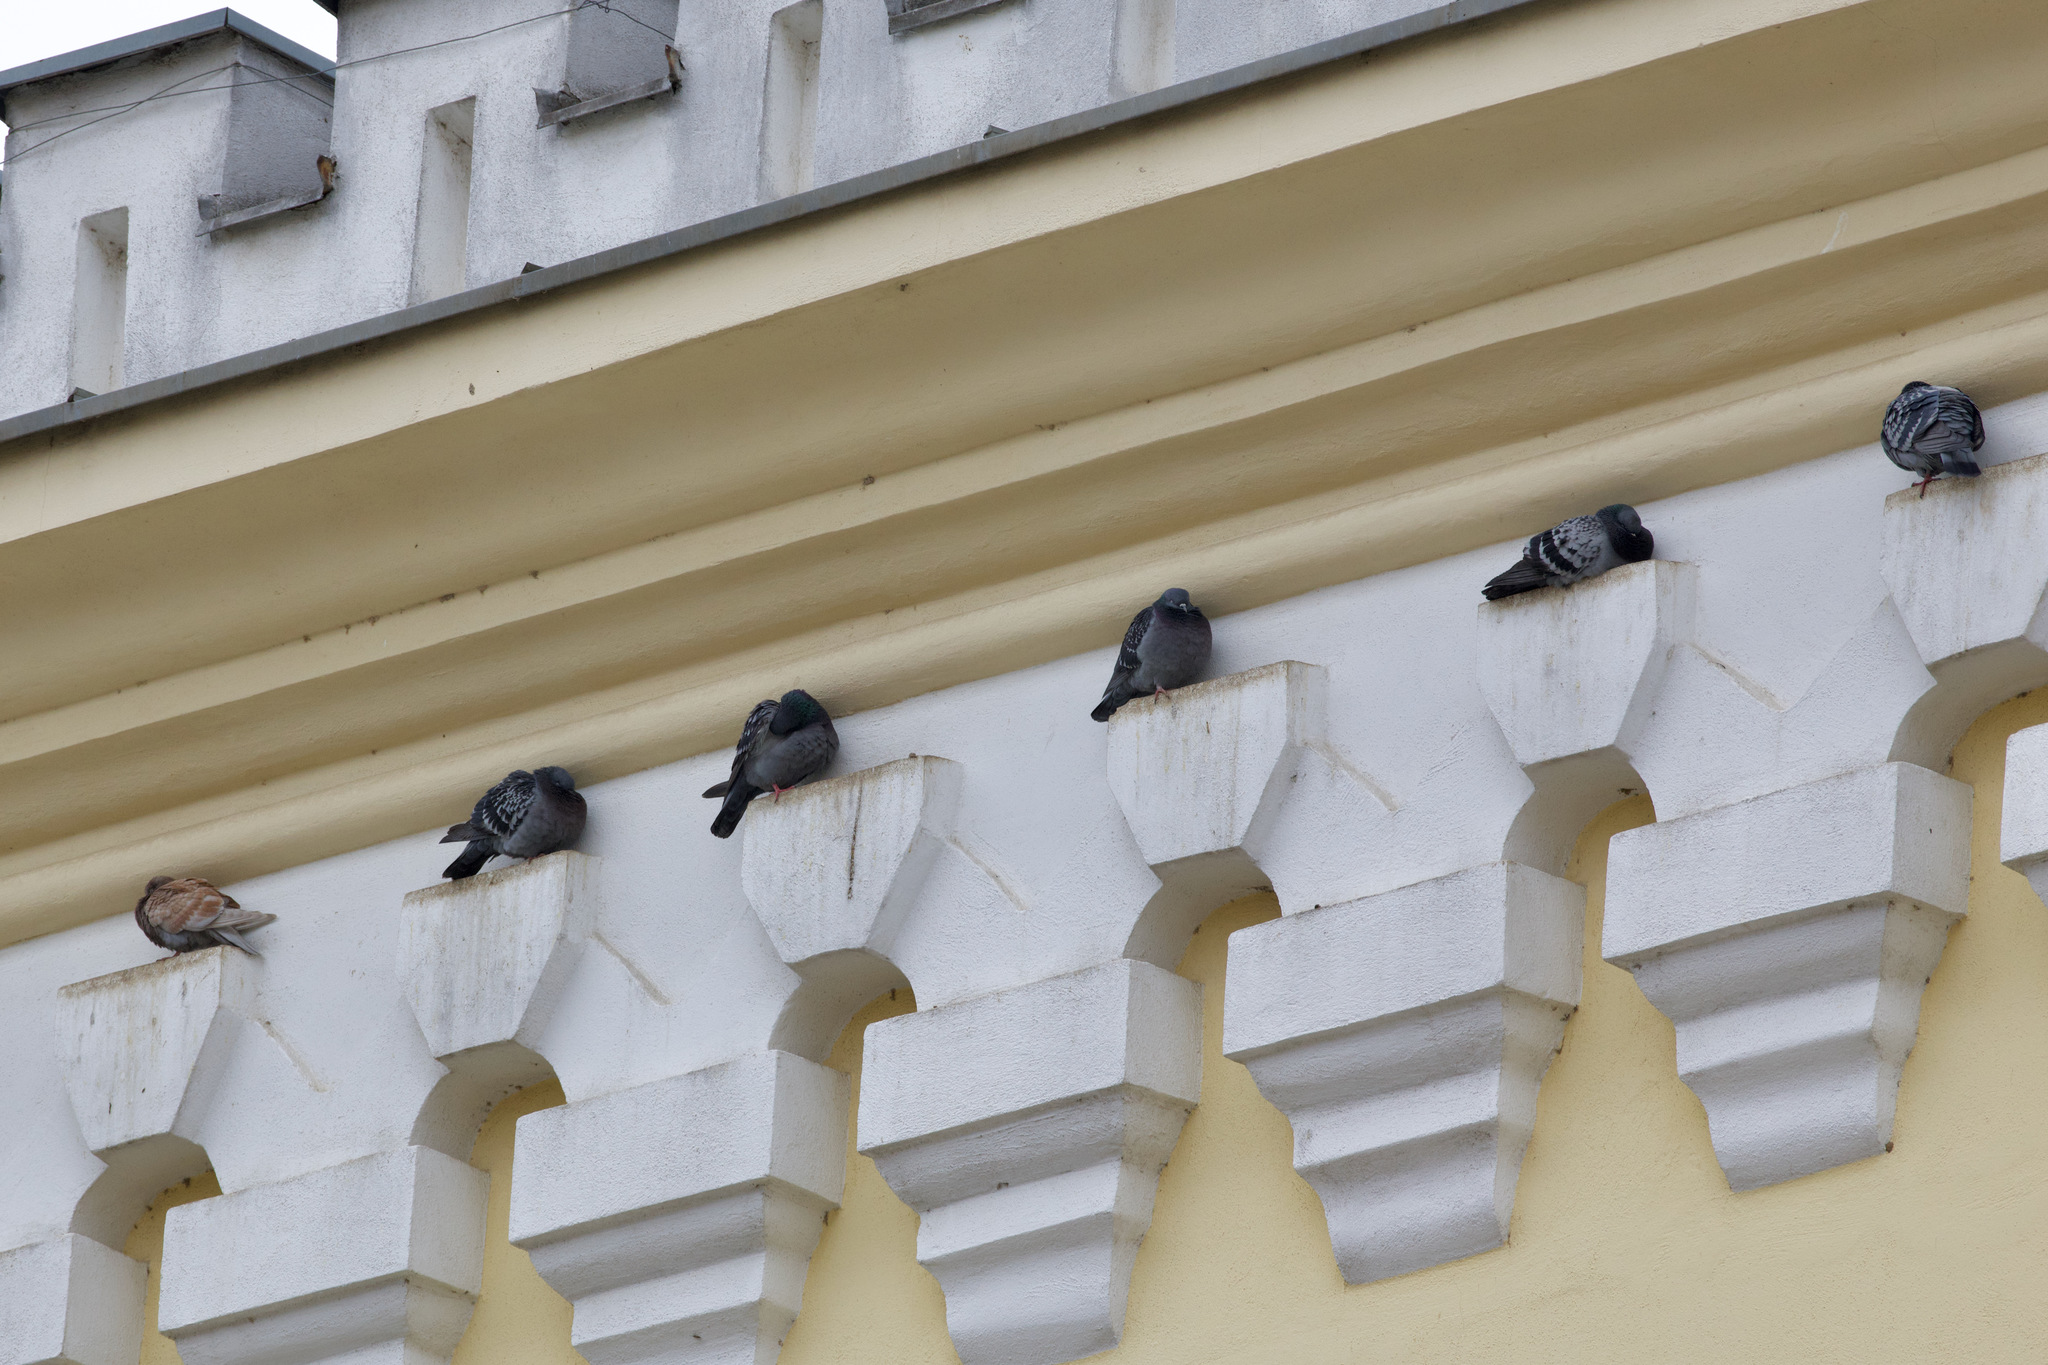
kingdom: Animalia
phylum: Chordata
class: Aves
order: Columbiformes
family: Columbidae
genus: Columba
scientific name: Columba livia
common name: Rock pigeon
